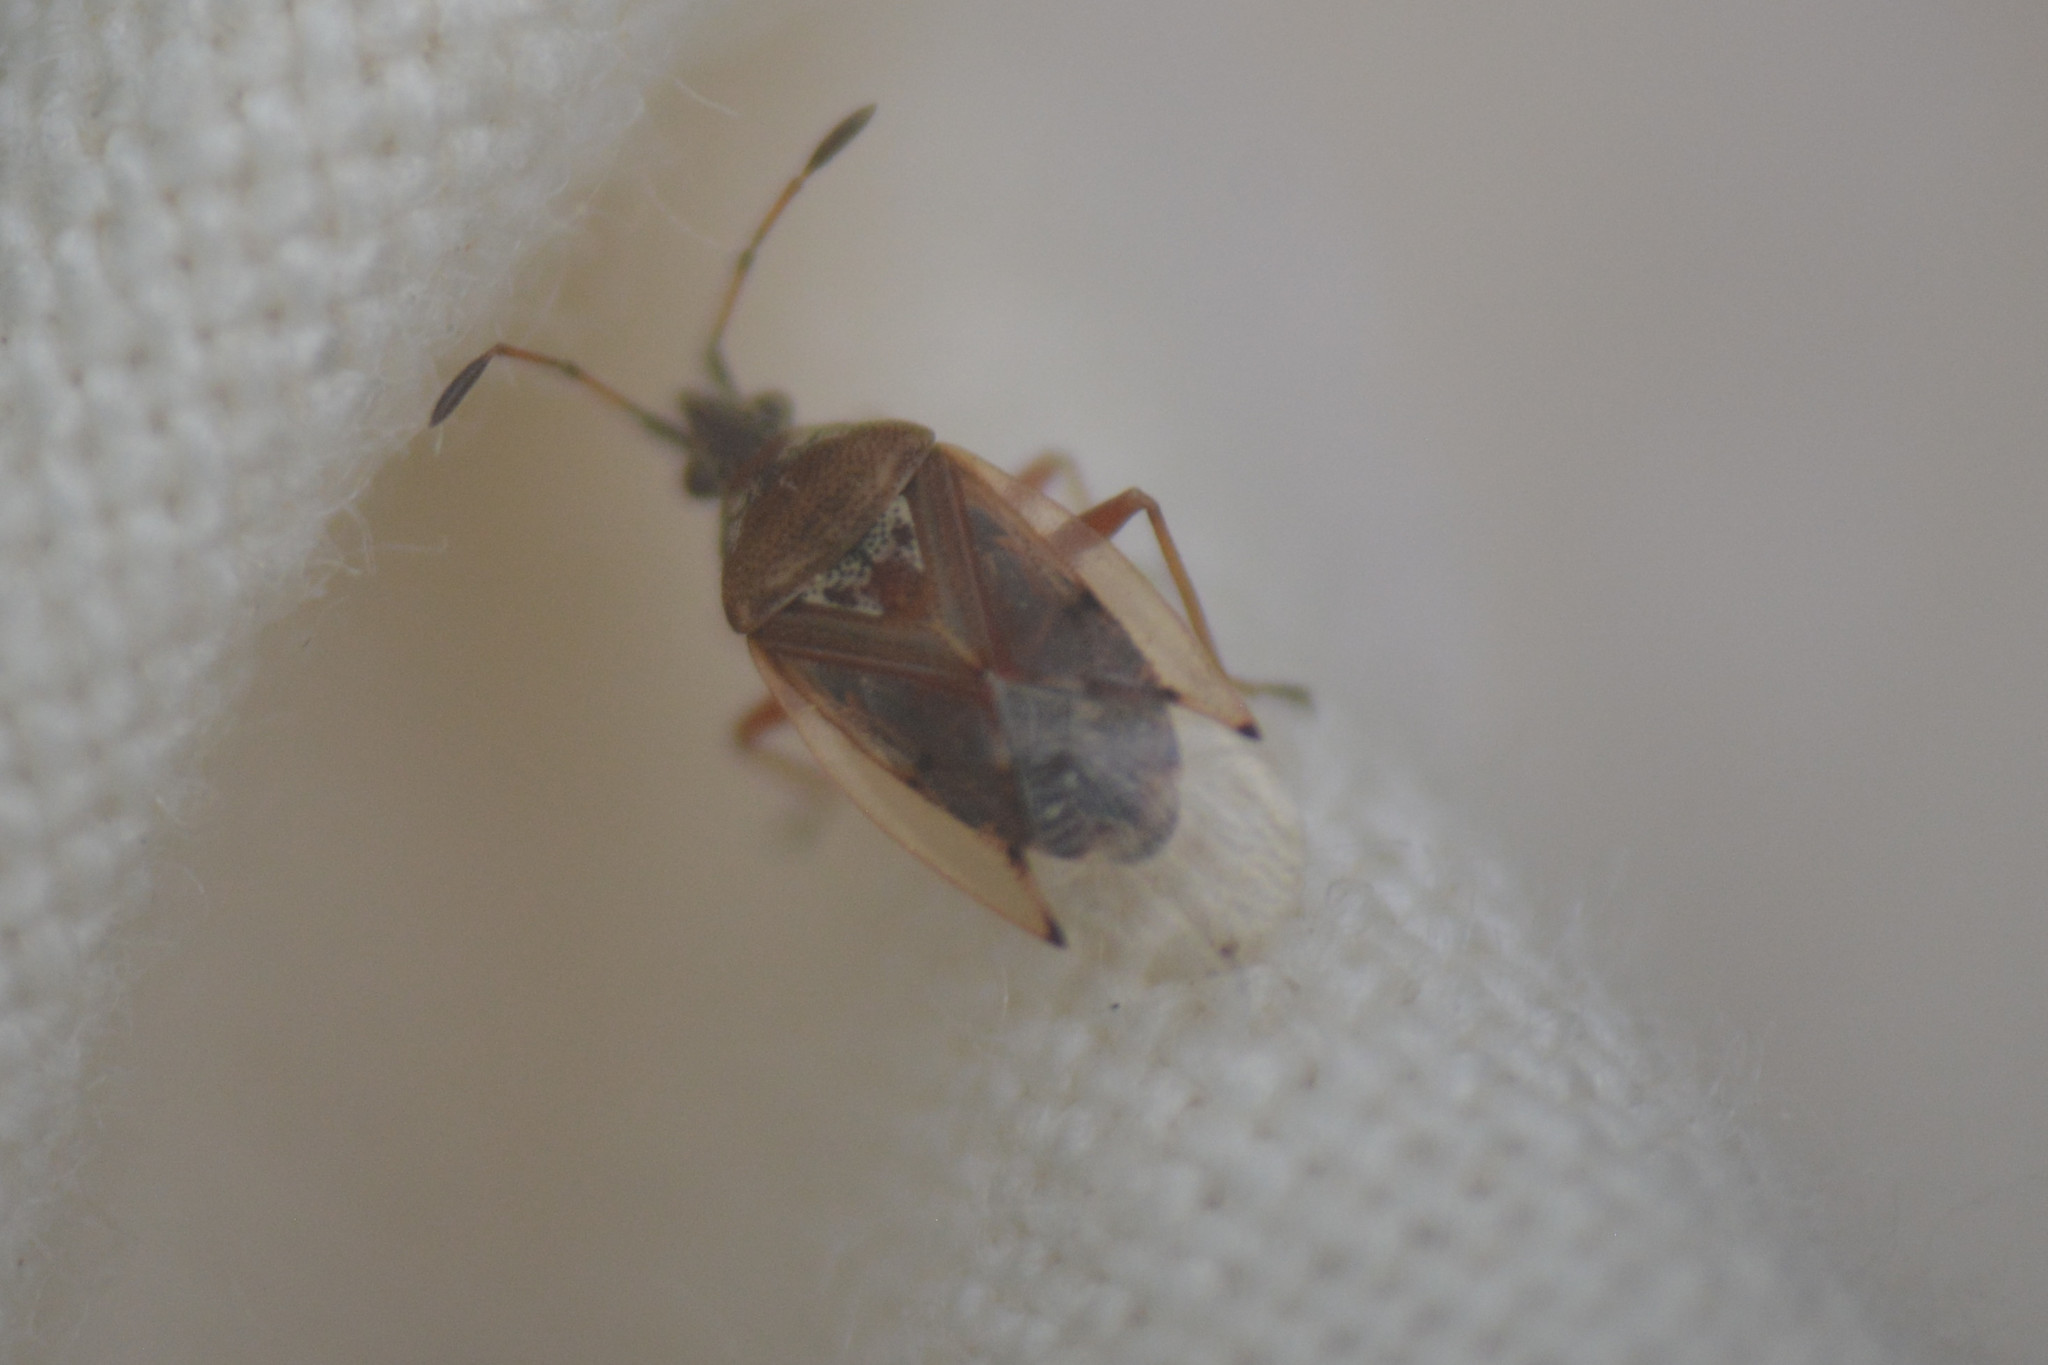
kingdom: Animalia
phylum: Arthropoda
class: Insecta
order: Hemiptera
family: Lygaeidae
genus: Kleidocerys
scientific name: Kleidocerys resedae
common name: Birch catkin bug
